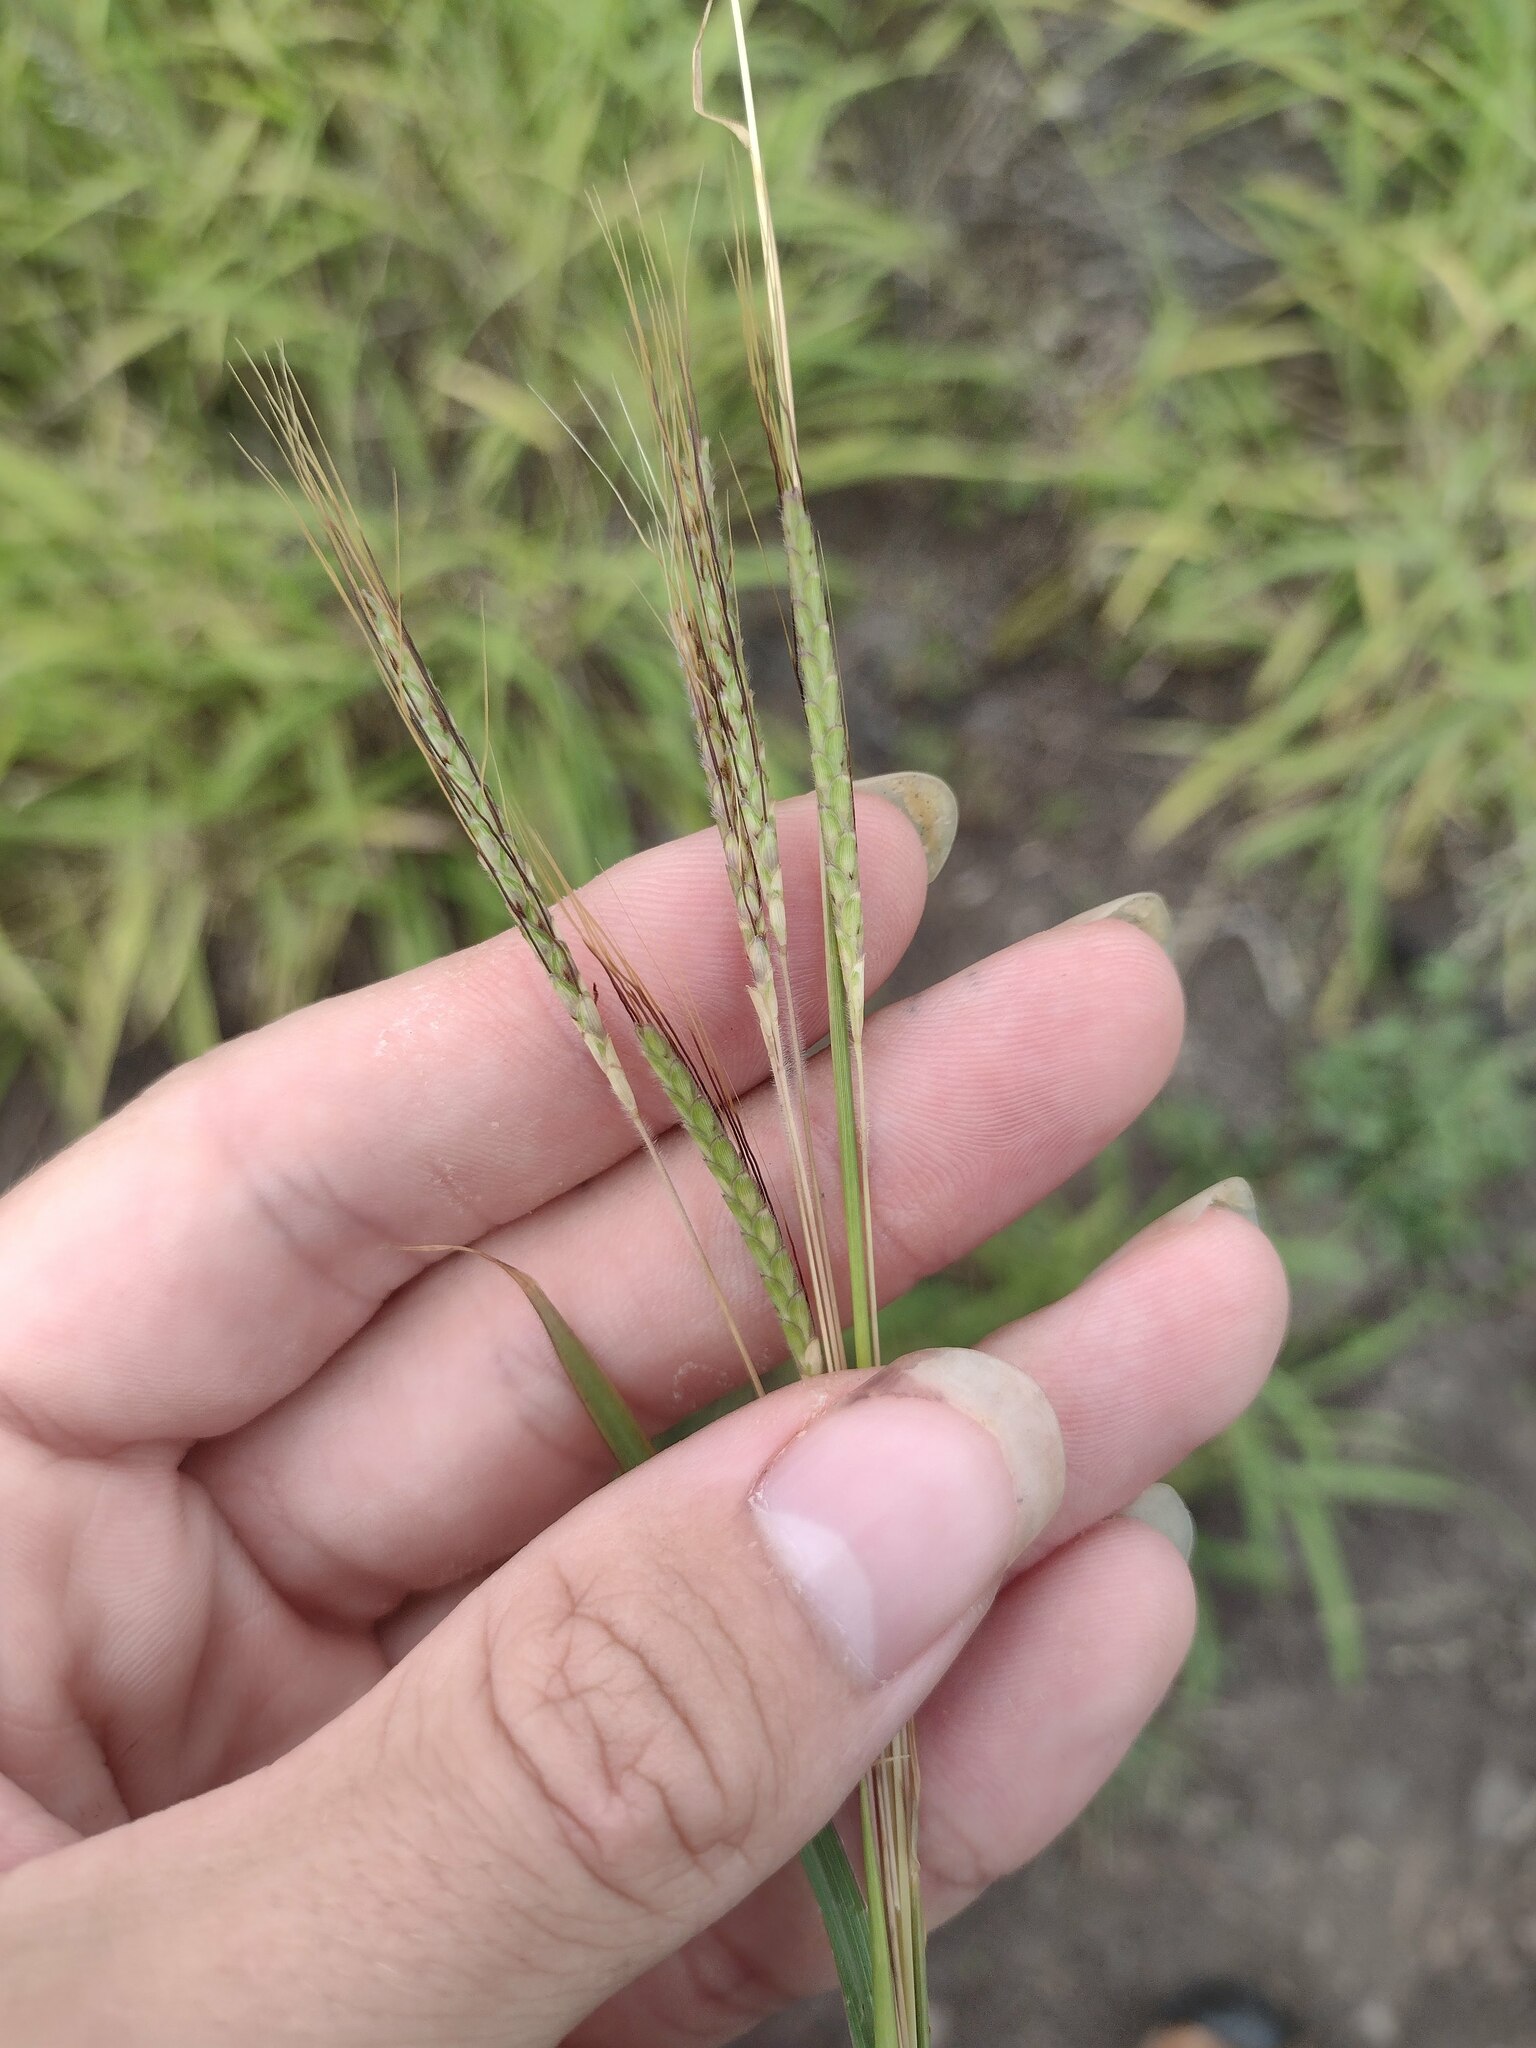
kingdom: Plantae
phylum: Tracheophyta
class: Liliopsida
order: Poales
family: Poaceae
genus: Dichanthium
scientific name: Dichanthium aristatum
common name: Angleton bluestem
